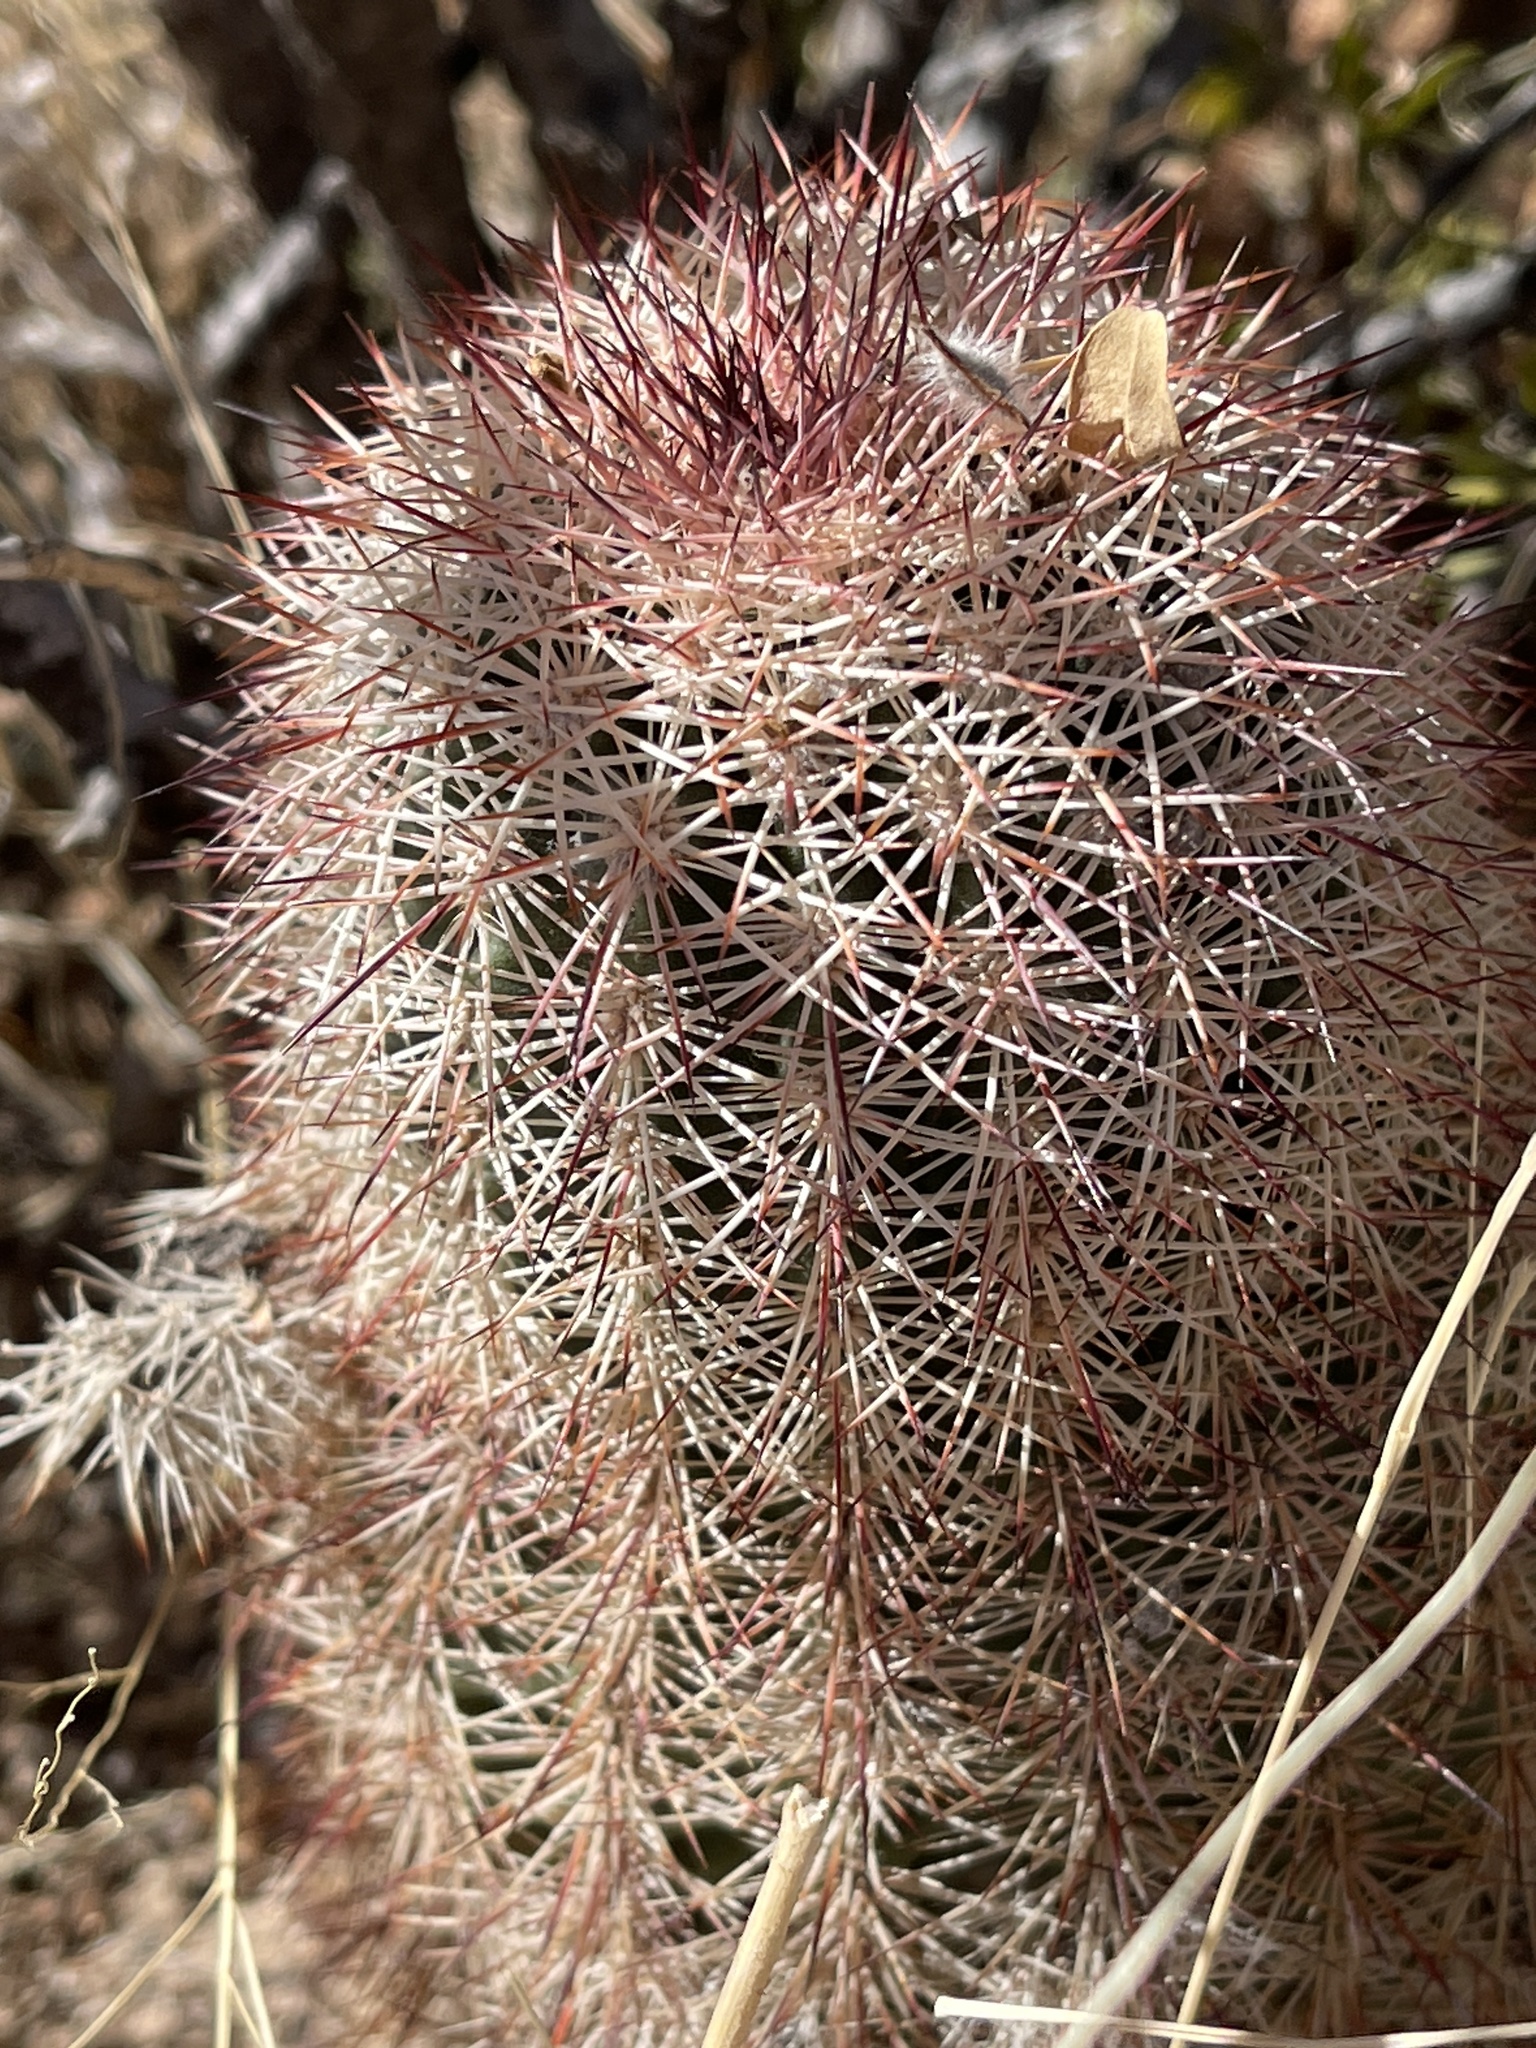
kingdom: Plantae
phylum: Tracheophyta
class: Magnoliopsida
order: Caryophyllales
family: Cactaceae
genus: Echinocereus
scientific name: Echinocereus dasyacanthus
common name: Spiny hedgehog cactus
